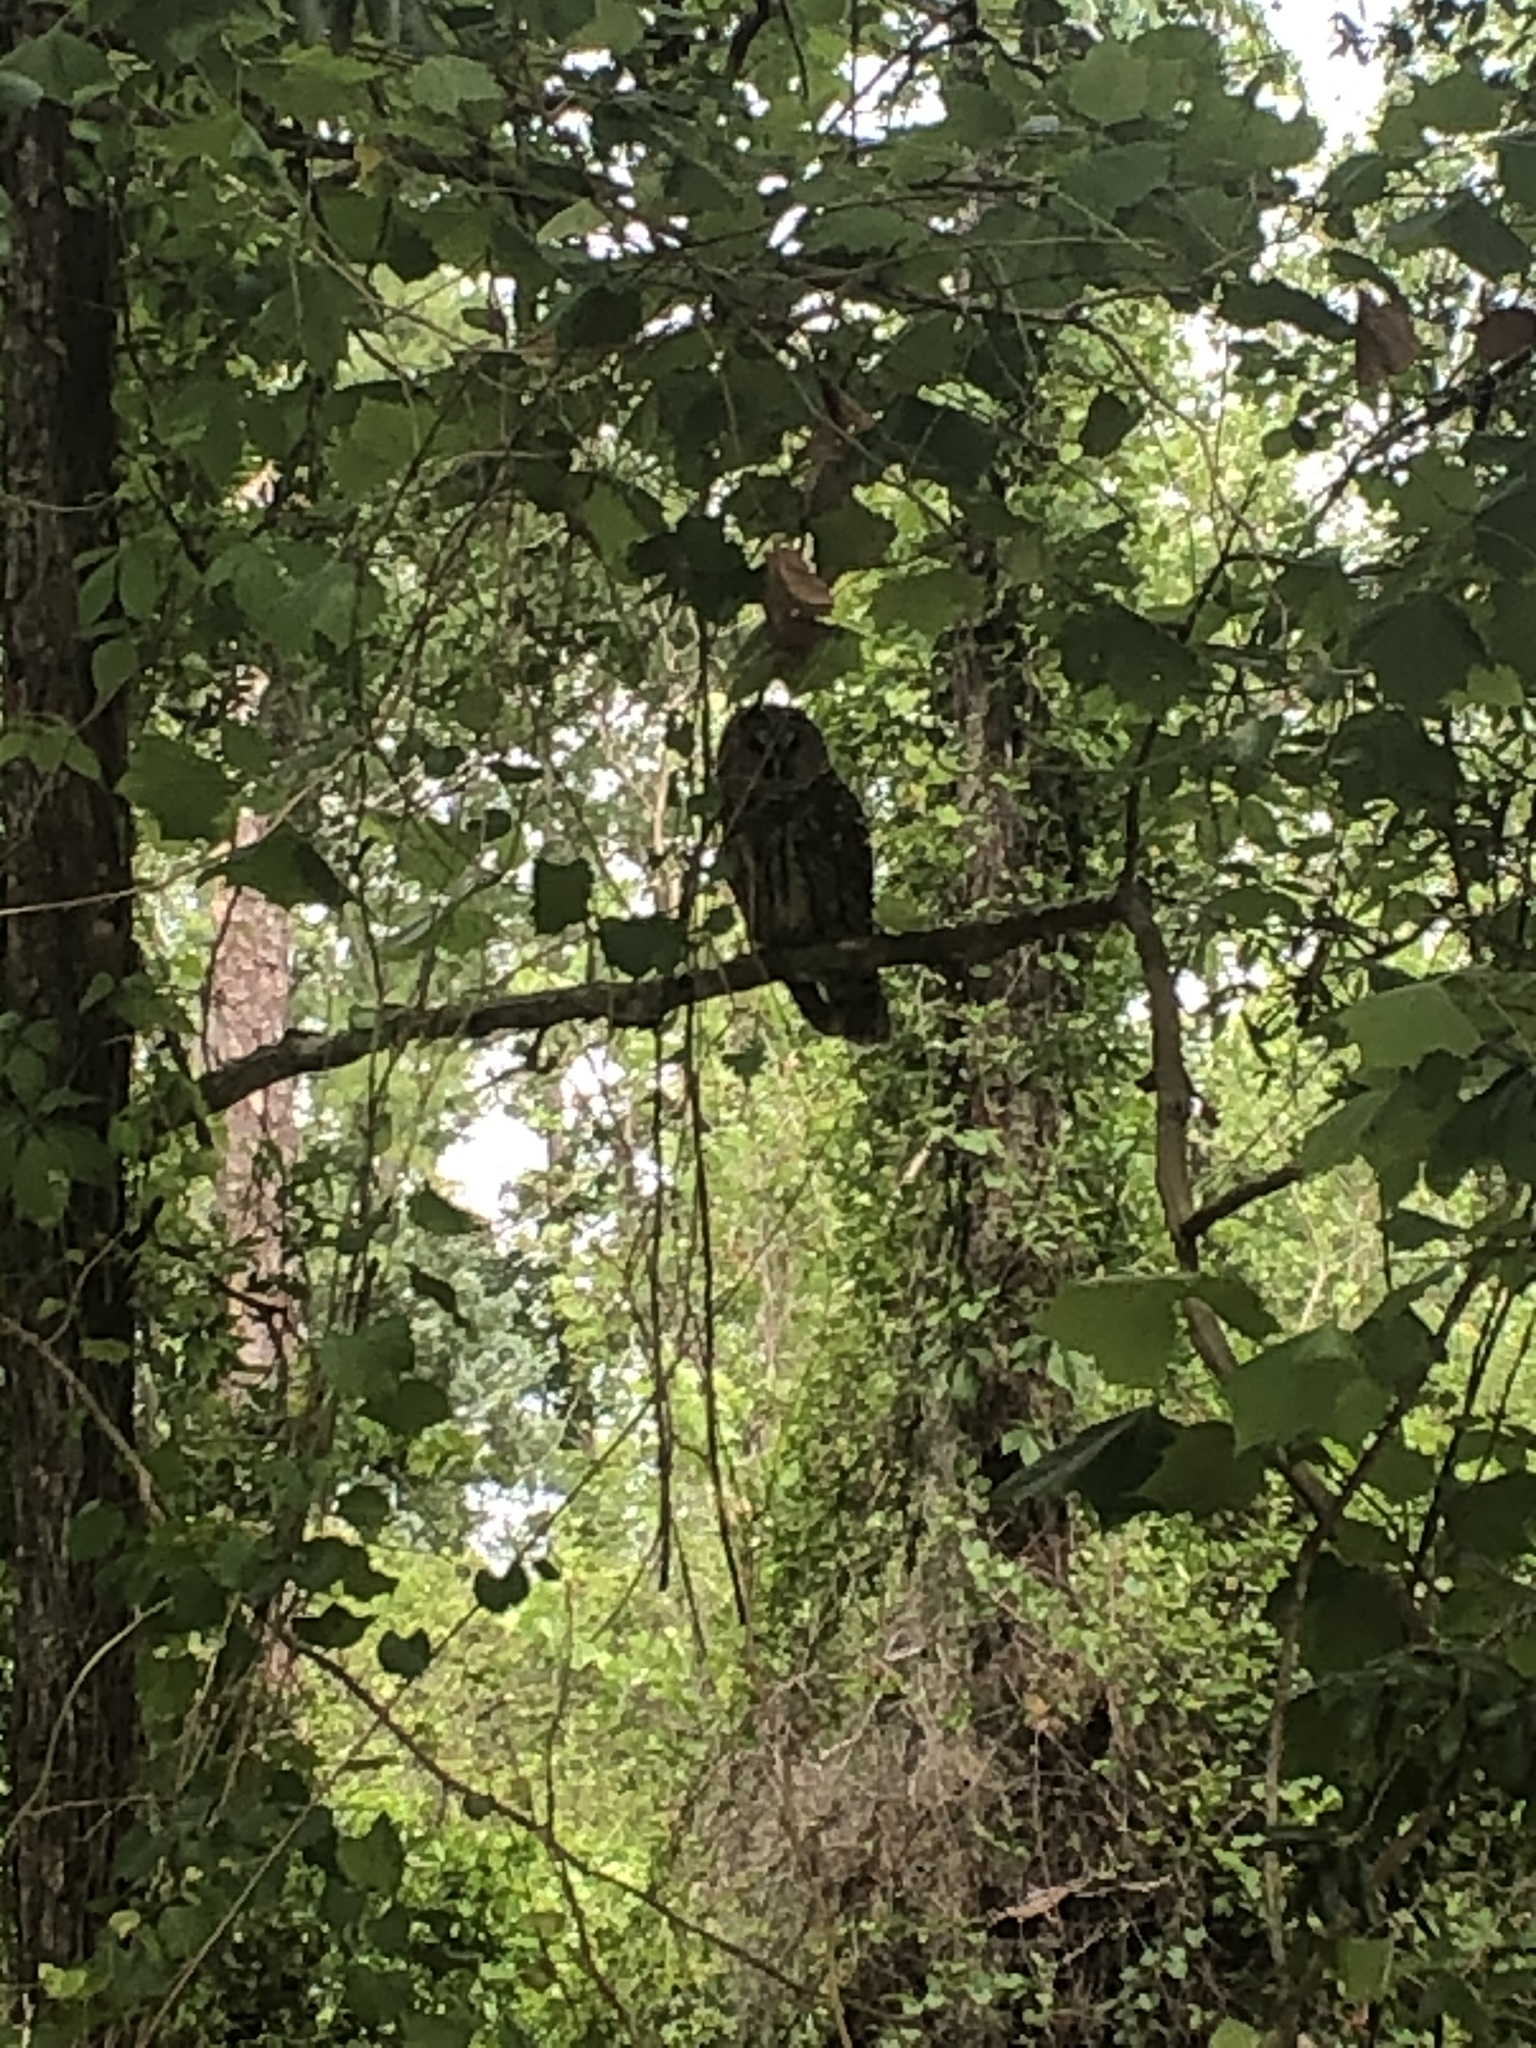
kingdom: Animalia
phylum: Chordata
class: Aves
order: Strigiformes
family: Strigidae
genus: Strix
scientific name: Strix varia
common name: Barred owl
